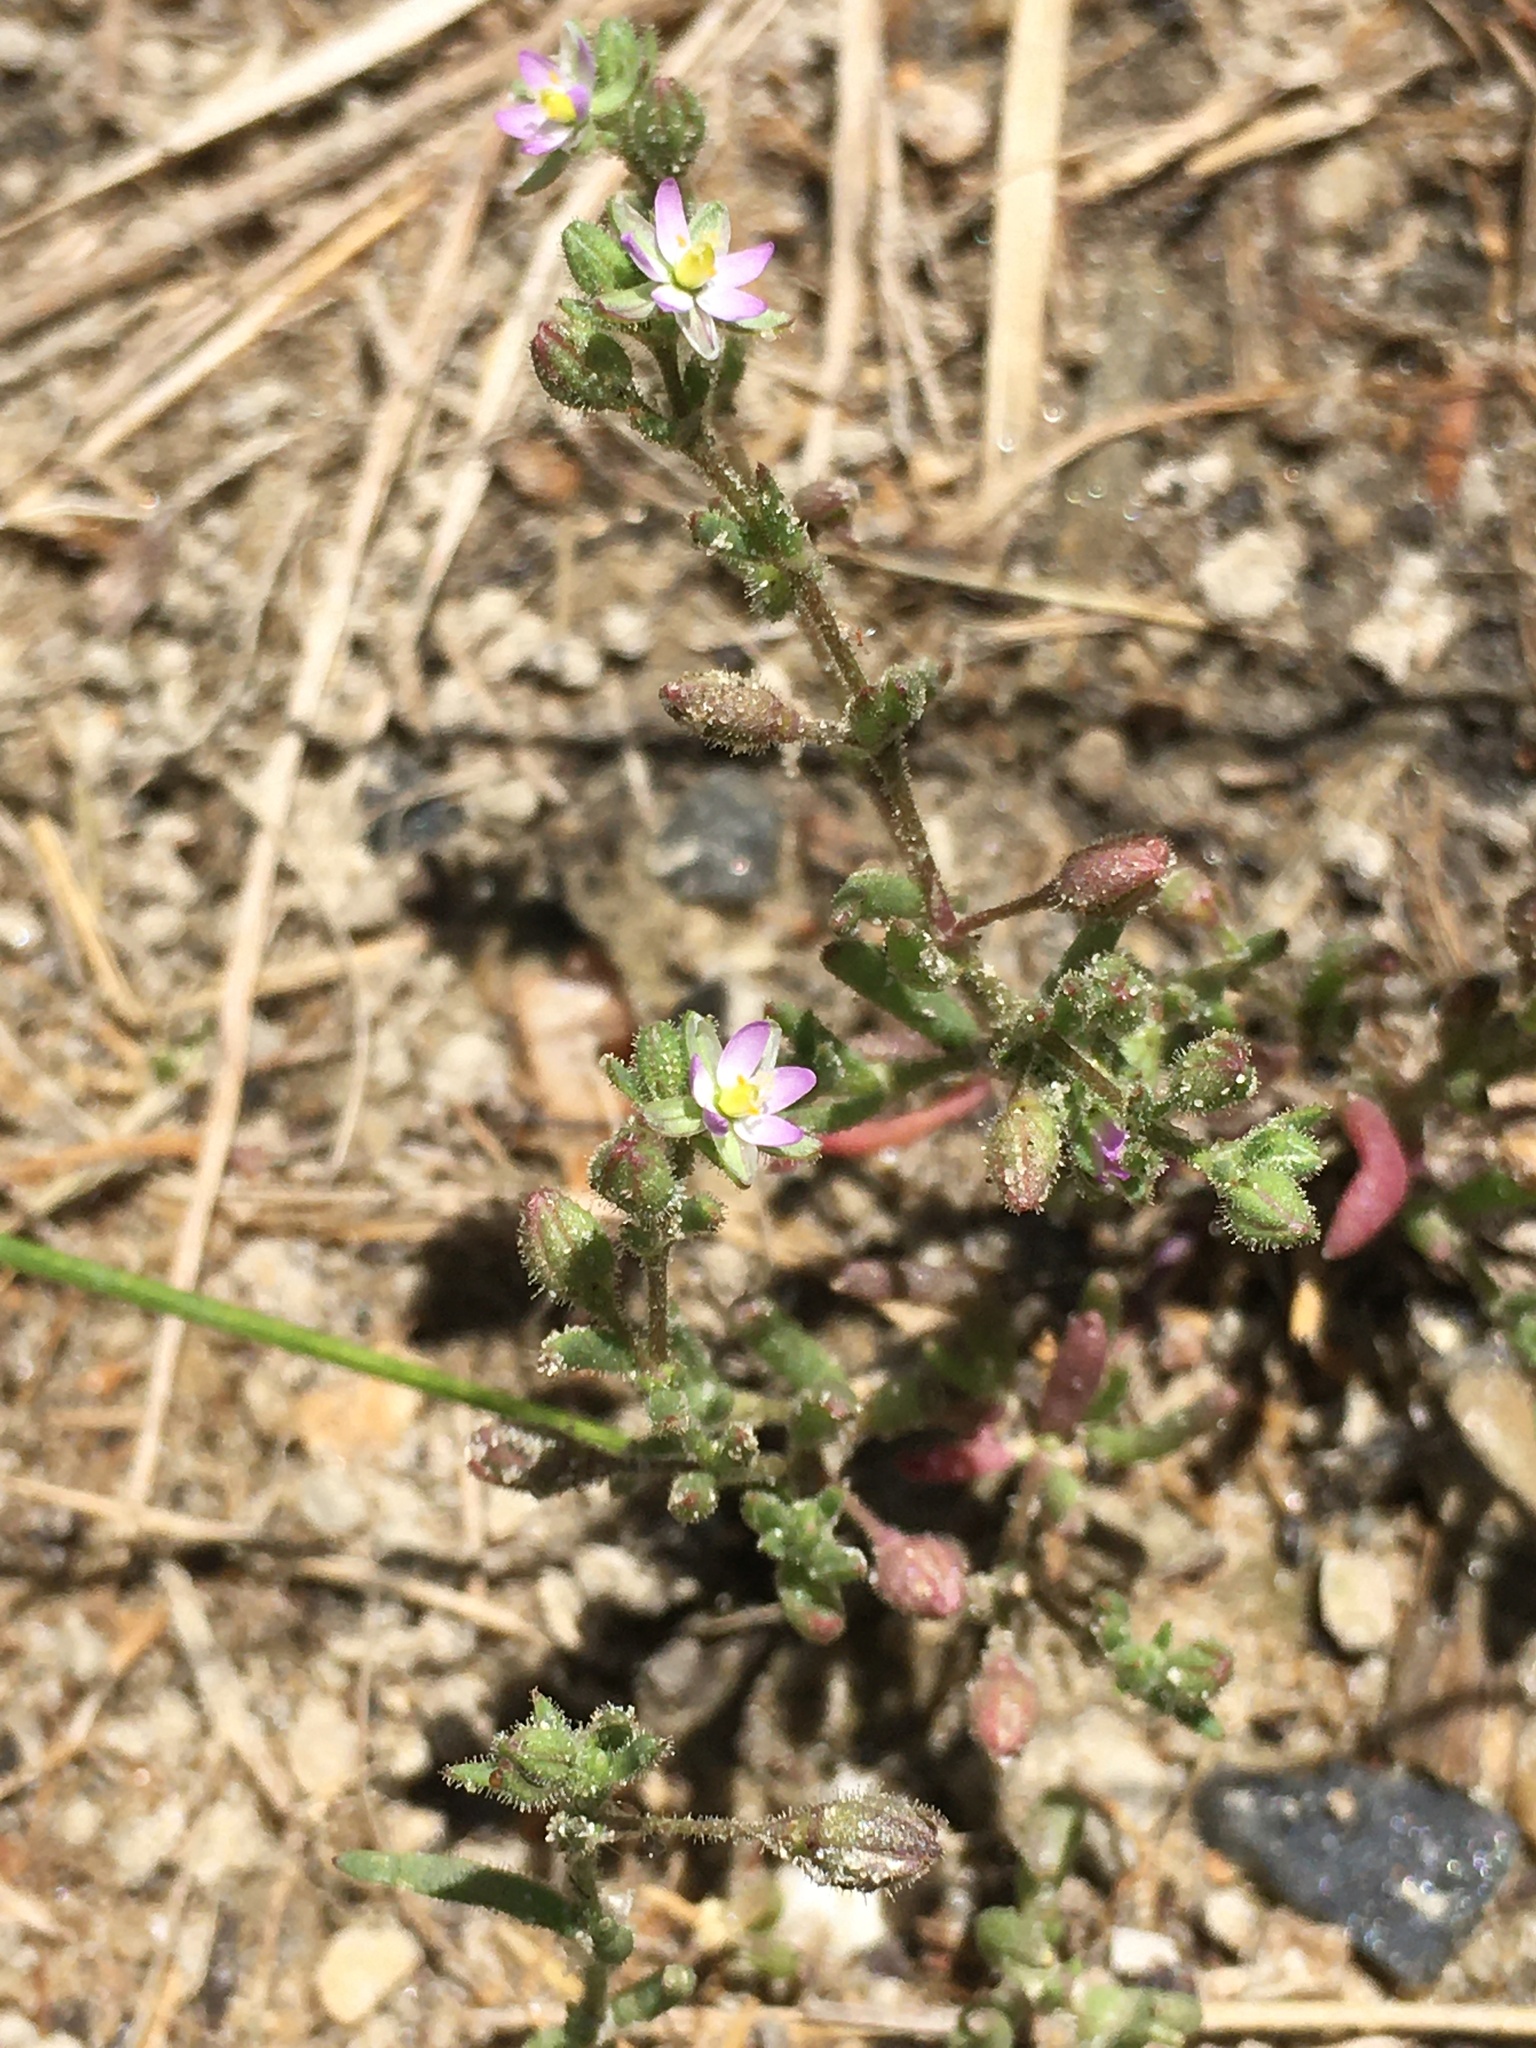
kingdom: Plantae
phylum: Tracheophyta
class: Magnoliopsida
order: Caryophyllales
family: Caryophyllaceae
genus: Spergularia
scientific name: Spergularia marina
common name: Lesser sea-spurrey
